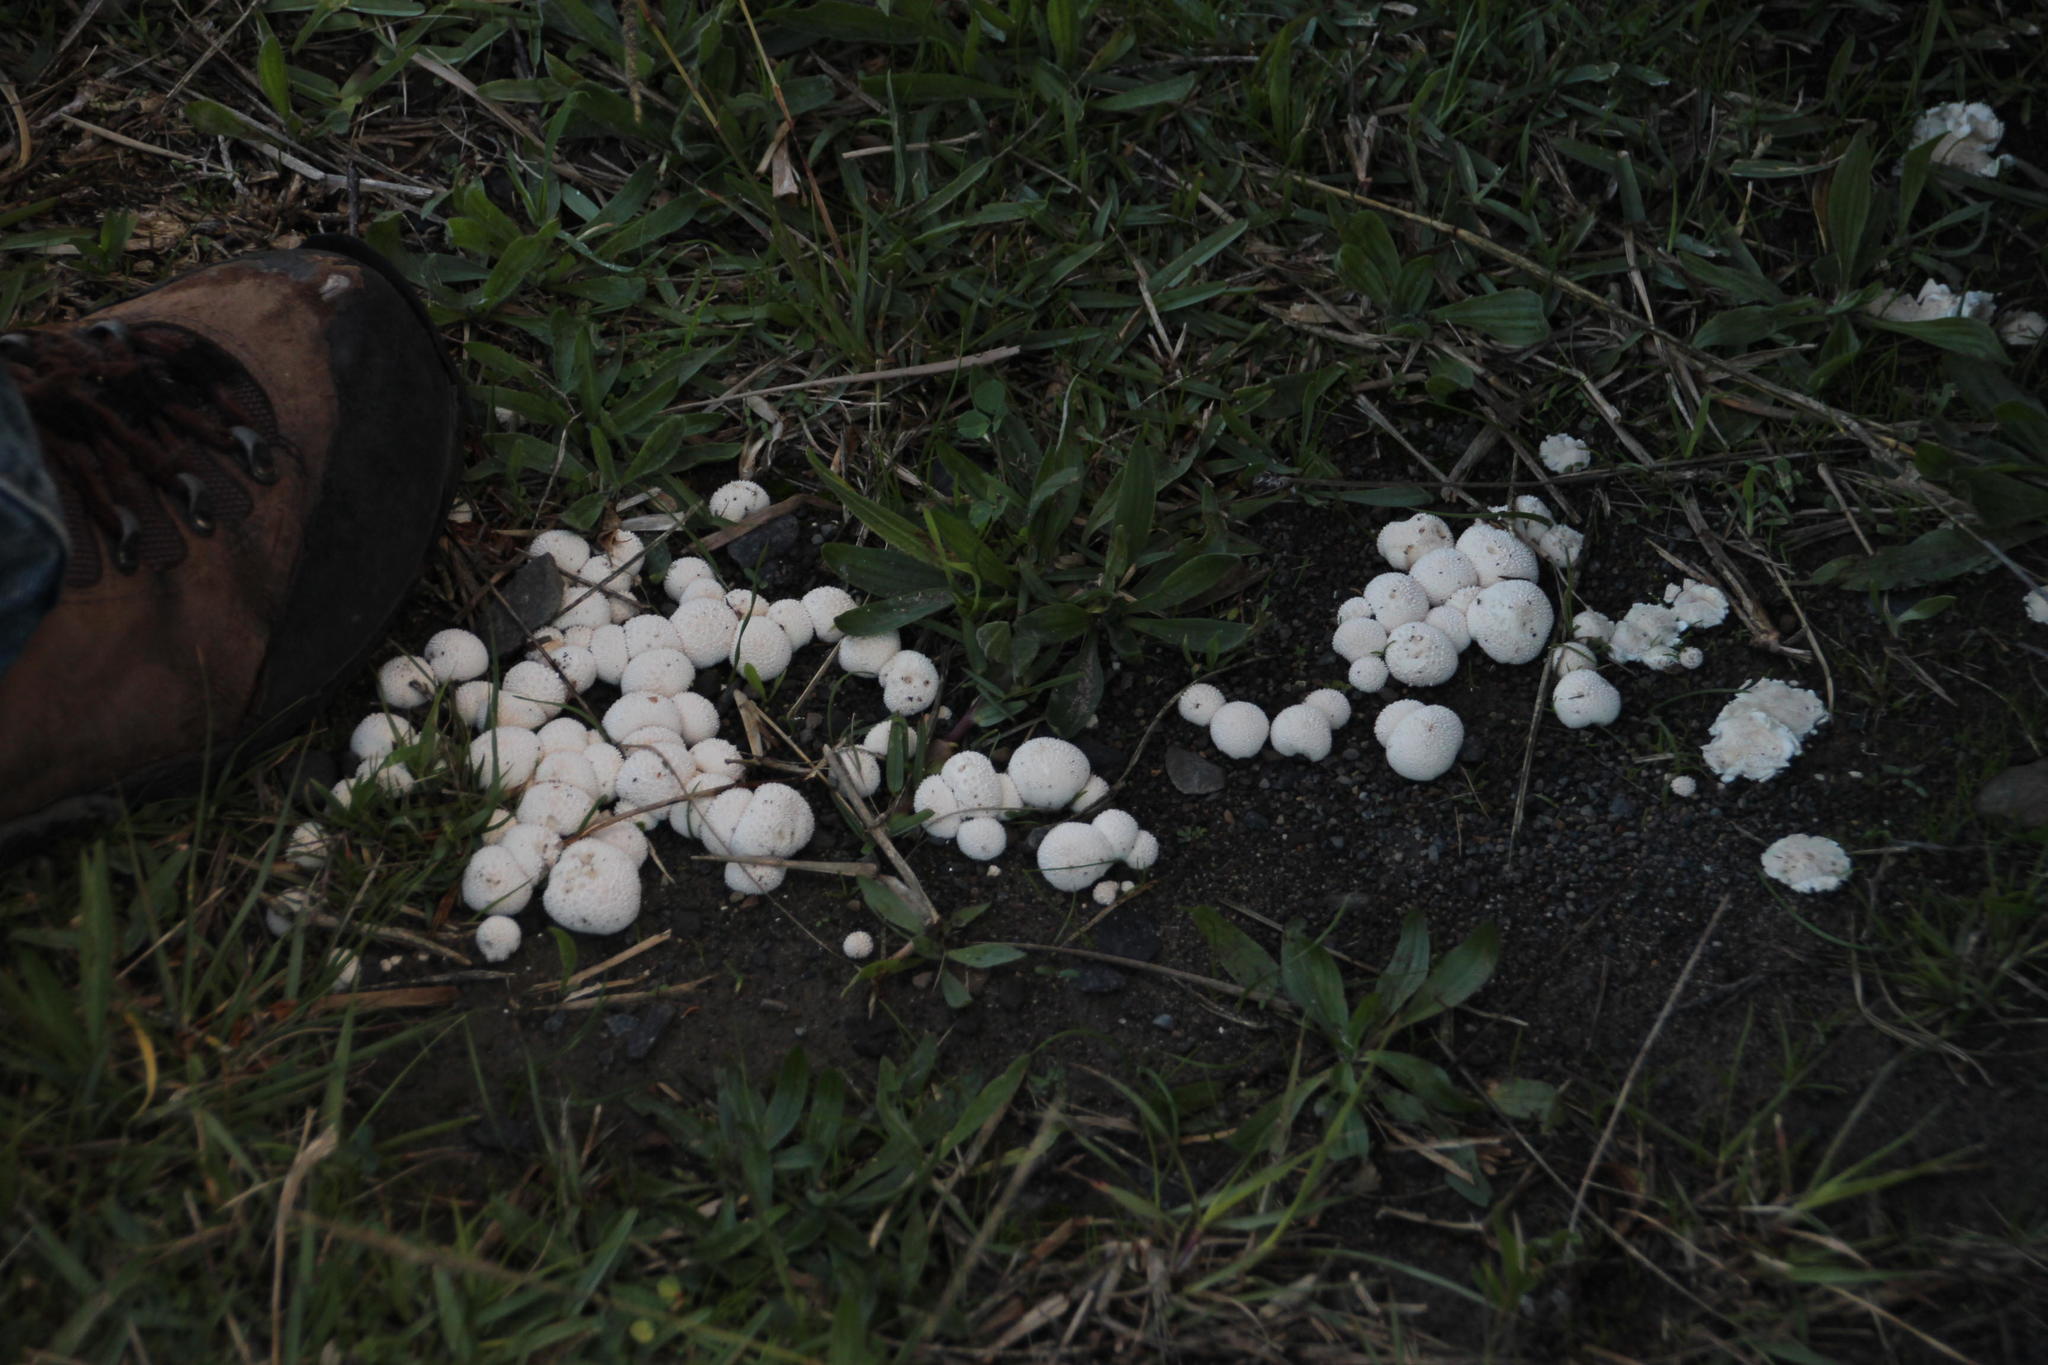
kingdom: Fungi
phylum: Basidiomycota
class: Agaricomycetes
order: Agaricales
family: Lycoperdaceae
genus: Lycoperdon
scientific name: Lycoperdon pratense
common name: Meadow puffball
